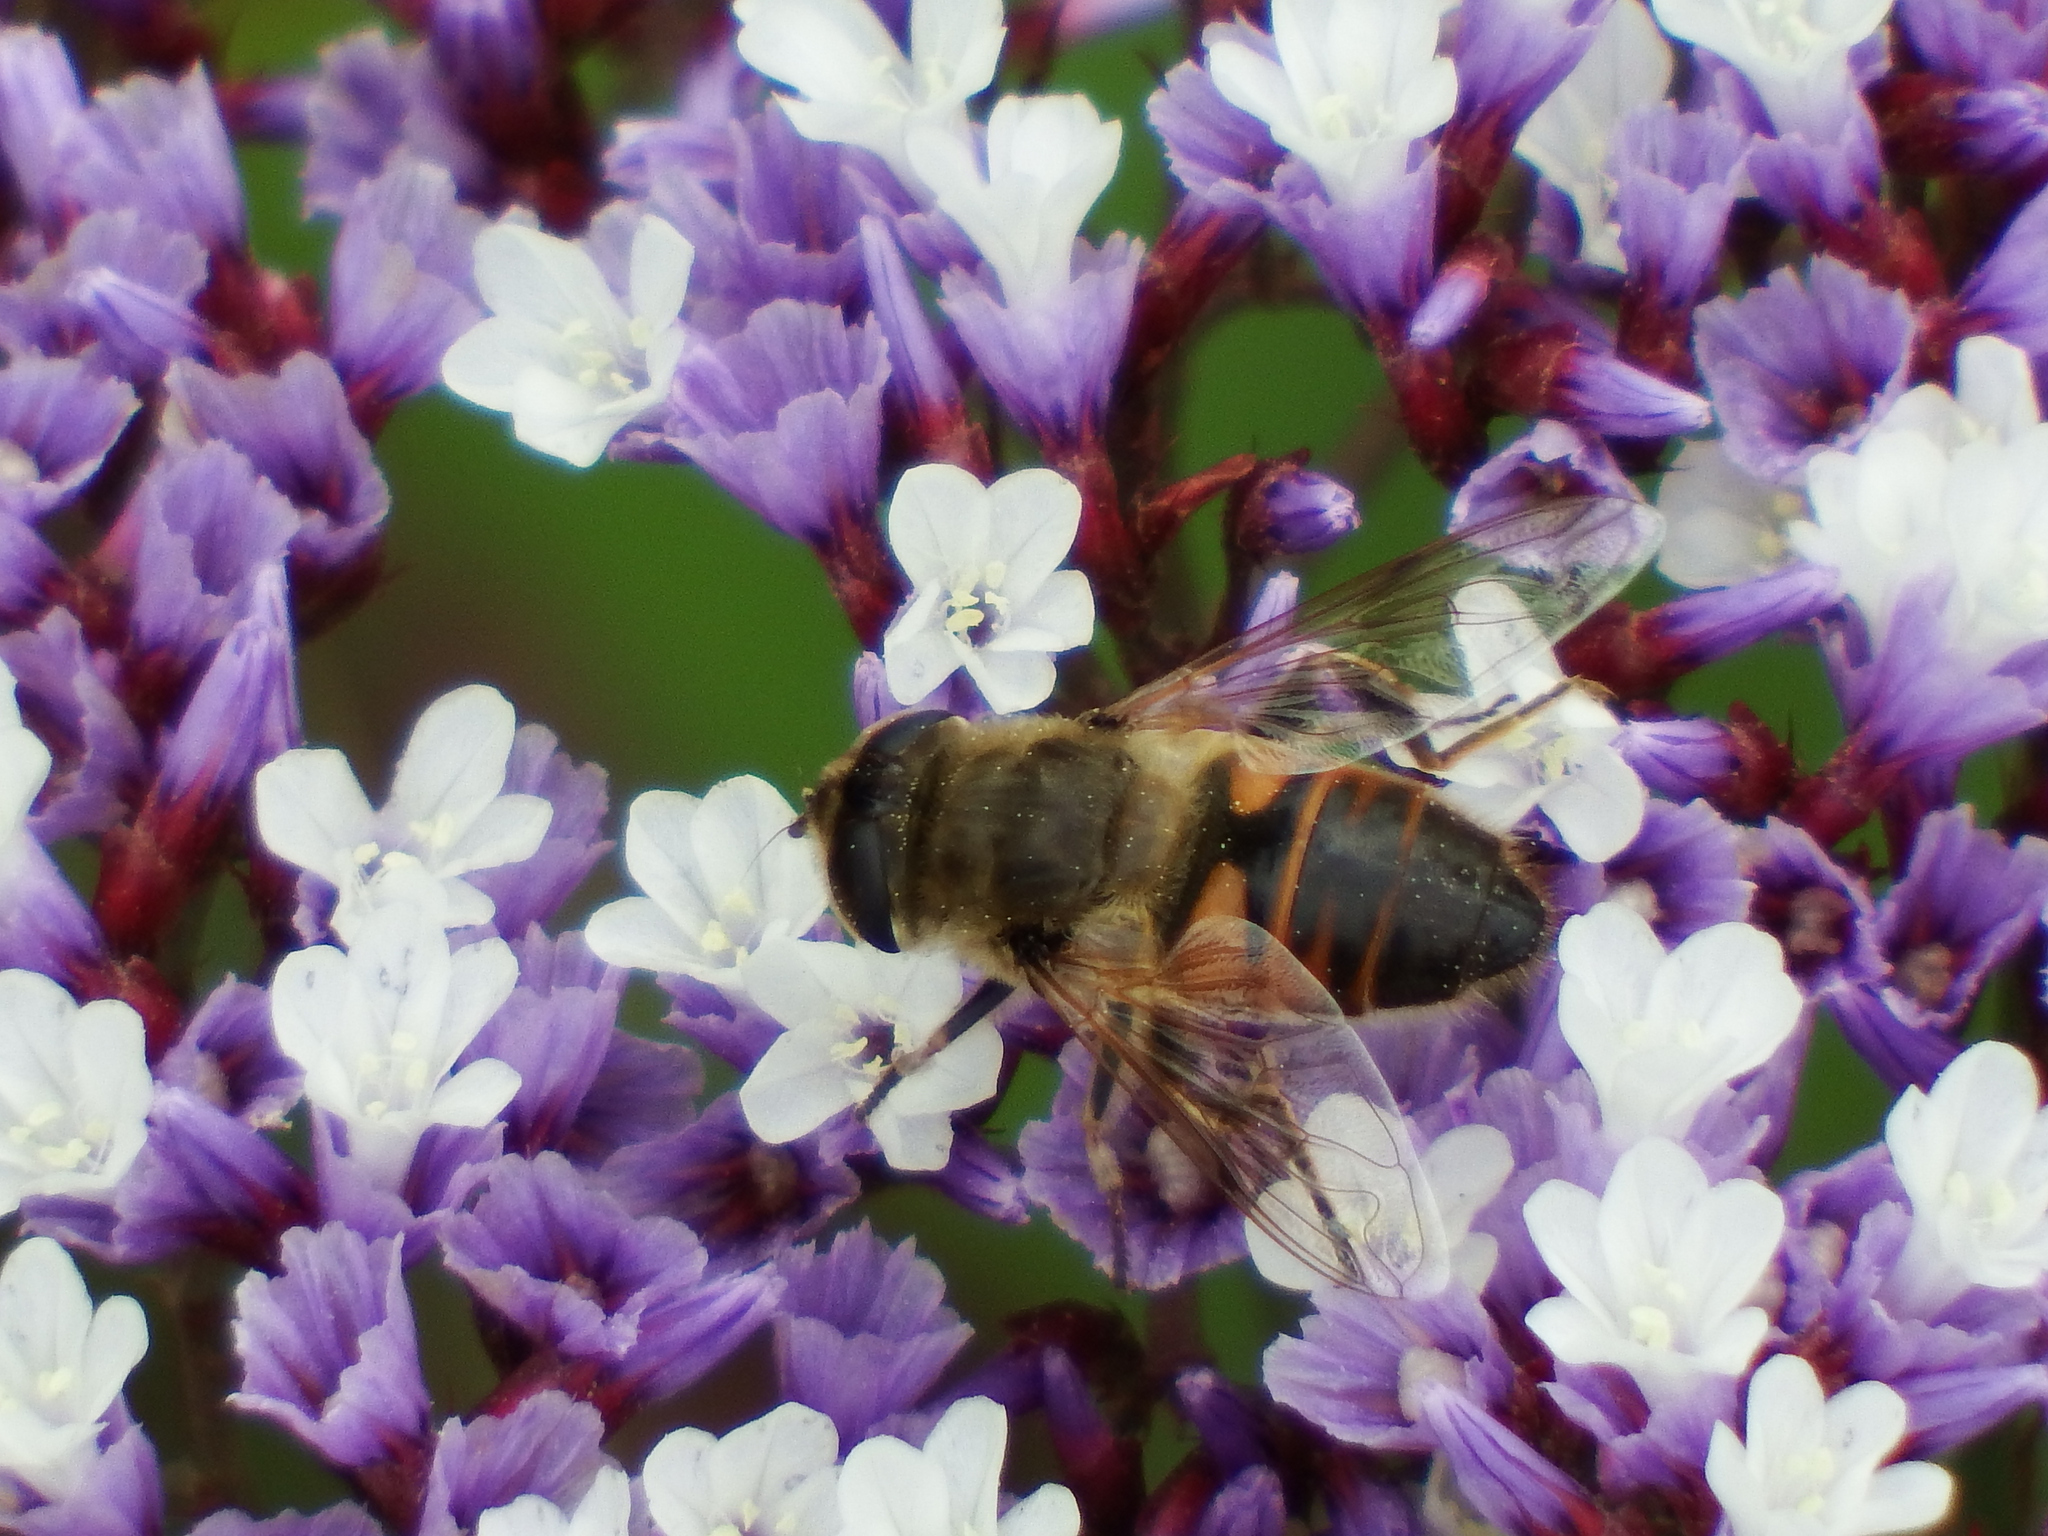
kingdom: Animalia
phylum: Arthropoda
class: Insecta
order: Diptera
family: Syrphidae
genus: Eristalis
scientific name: Eristalis tenax
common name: Drone fly
